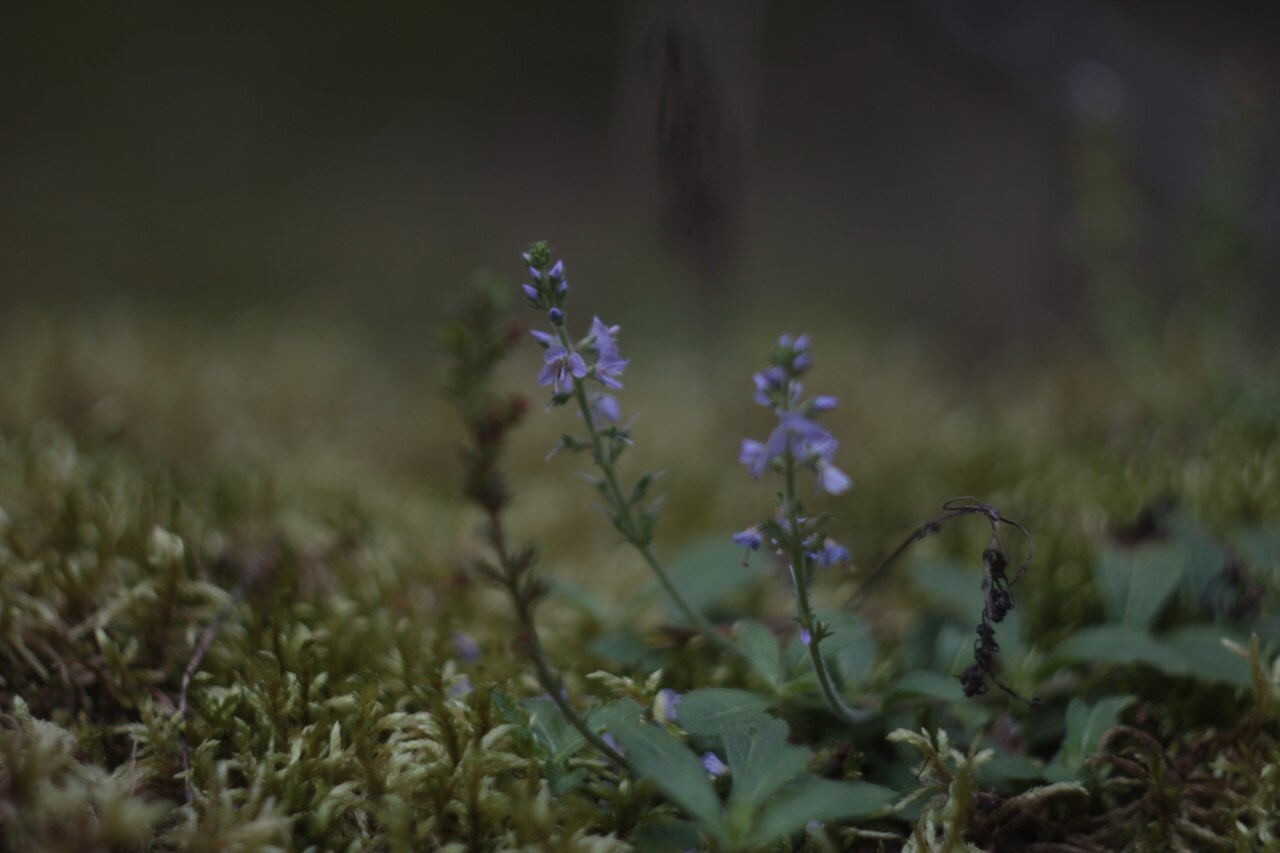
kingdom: Plantae
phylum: Tracheophyta
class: Magnoliopsida
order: Lamiales
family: Plantaginaceae
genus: Veronica
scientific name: Veronica officinalis
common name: Common speedwell
